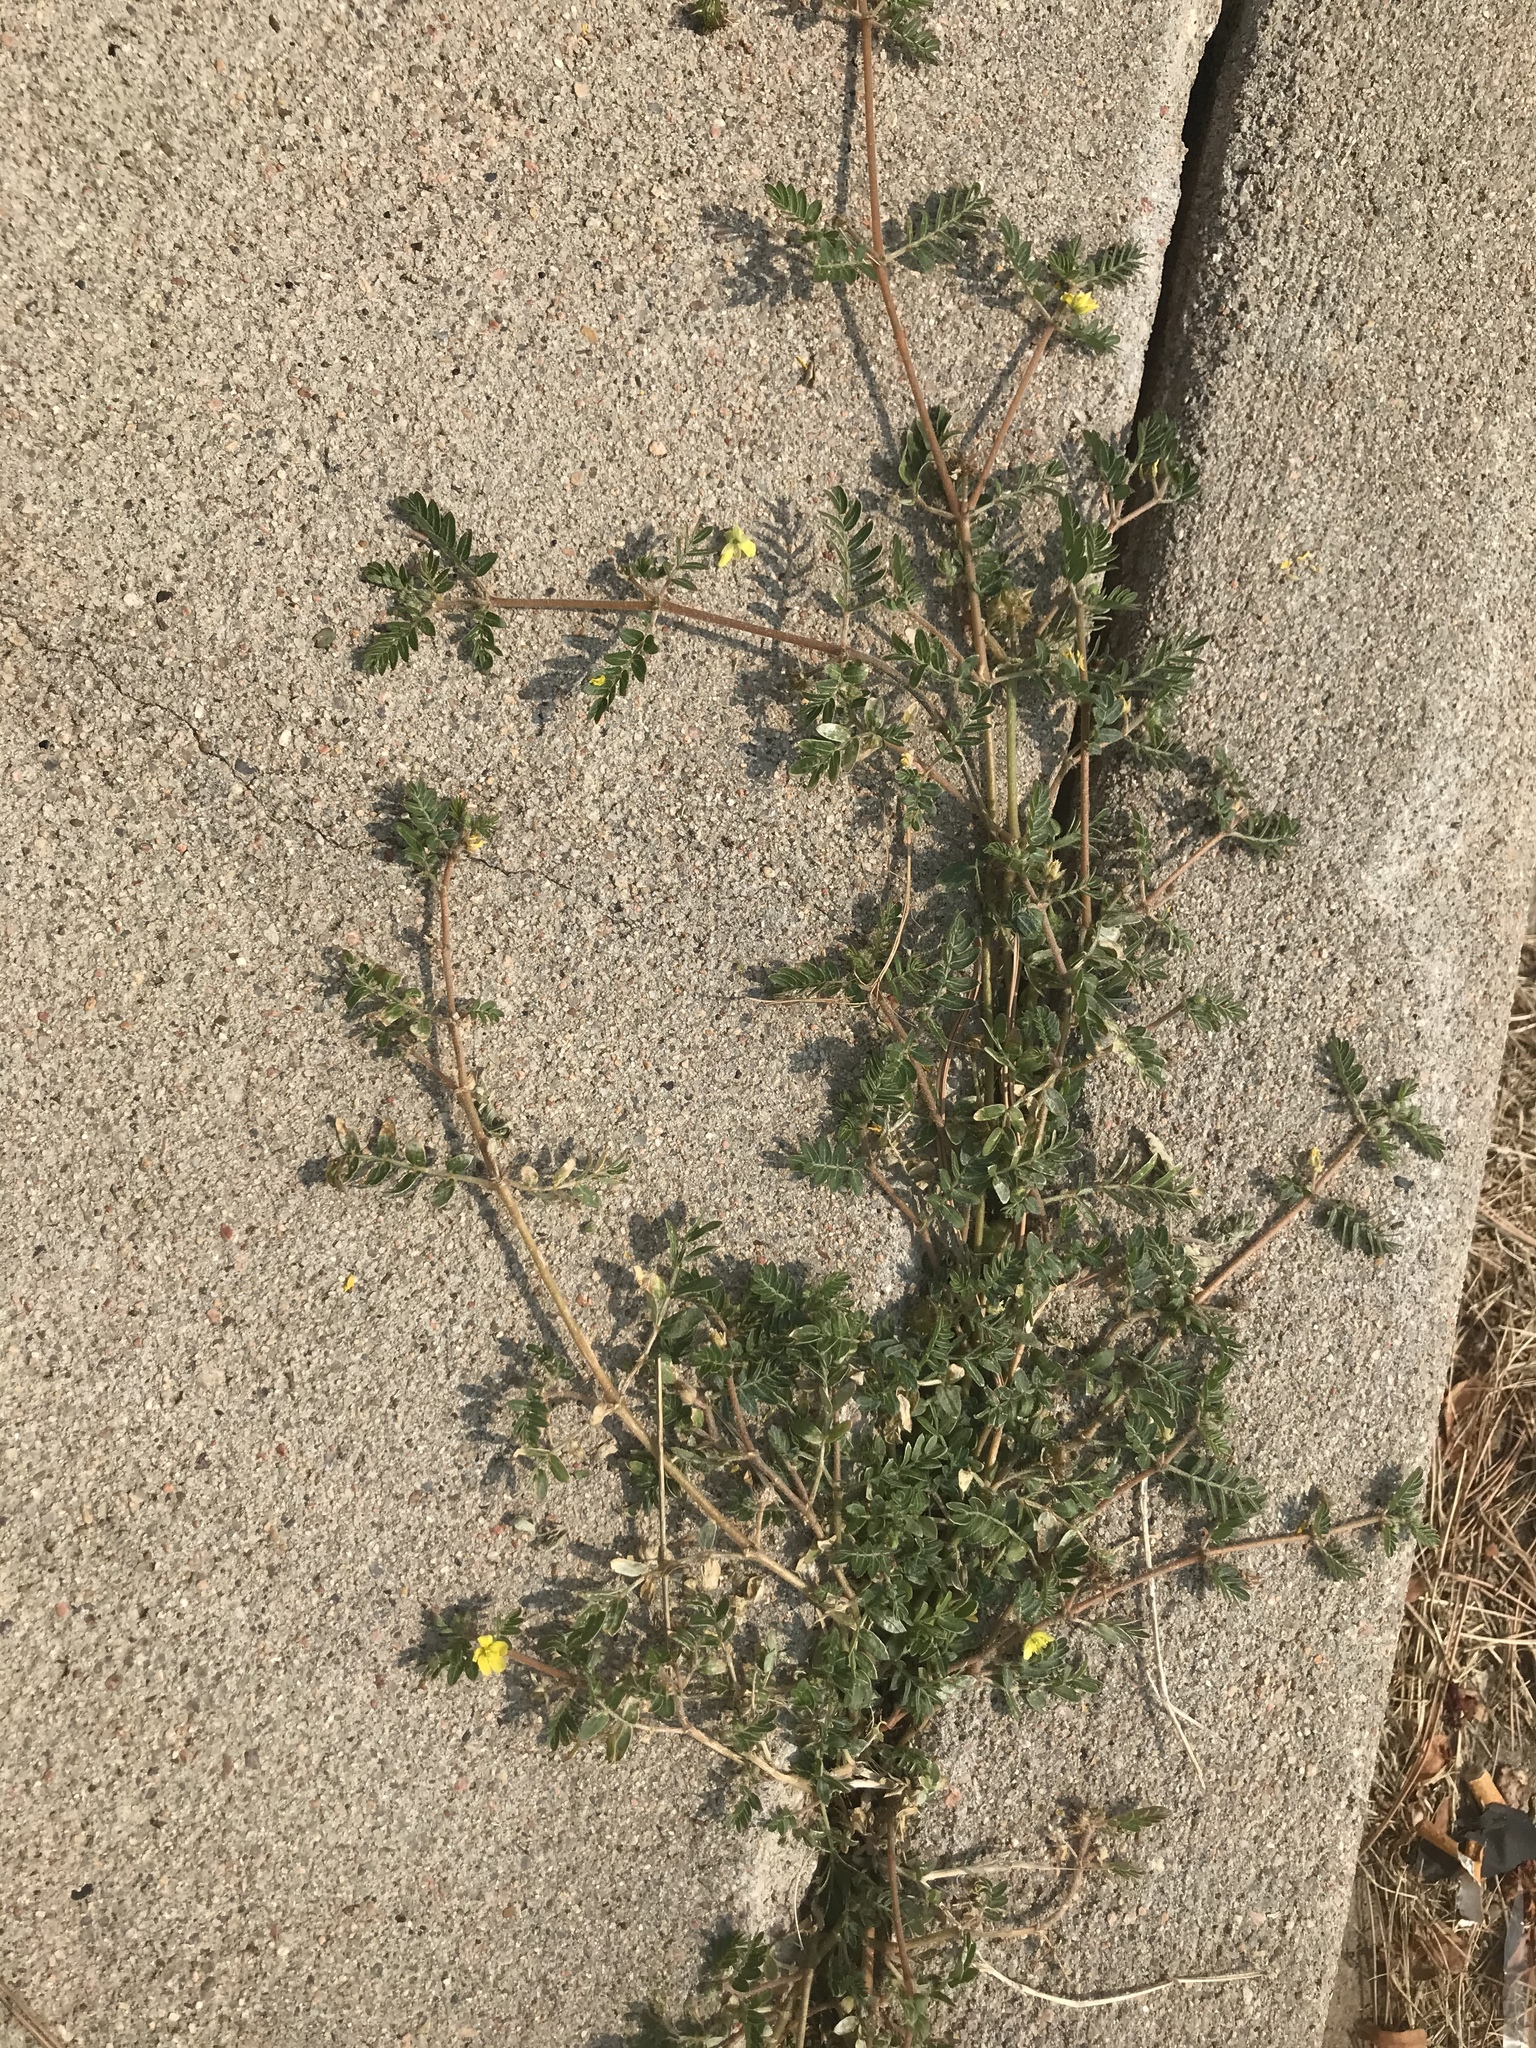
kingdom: Plantae
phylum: Tracheophyta
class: Magnoliopsida
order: Zygophyllales
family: Zygophyllaceae
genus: Tribulus
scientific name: Tribulus terrestris
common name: Puncturevine
